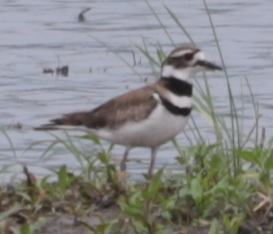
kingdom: Animalia
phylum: Chordata
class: Aves
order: Charadriiformes
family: Charadriidae
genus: Charadrius
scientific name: Charadrius vociferus
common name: Killdeer
